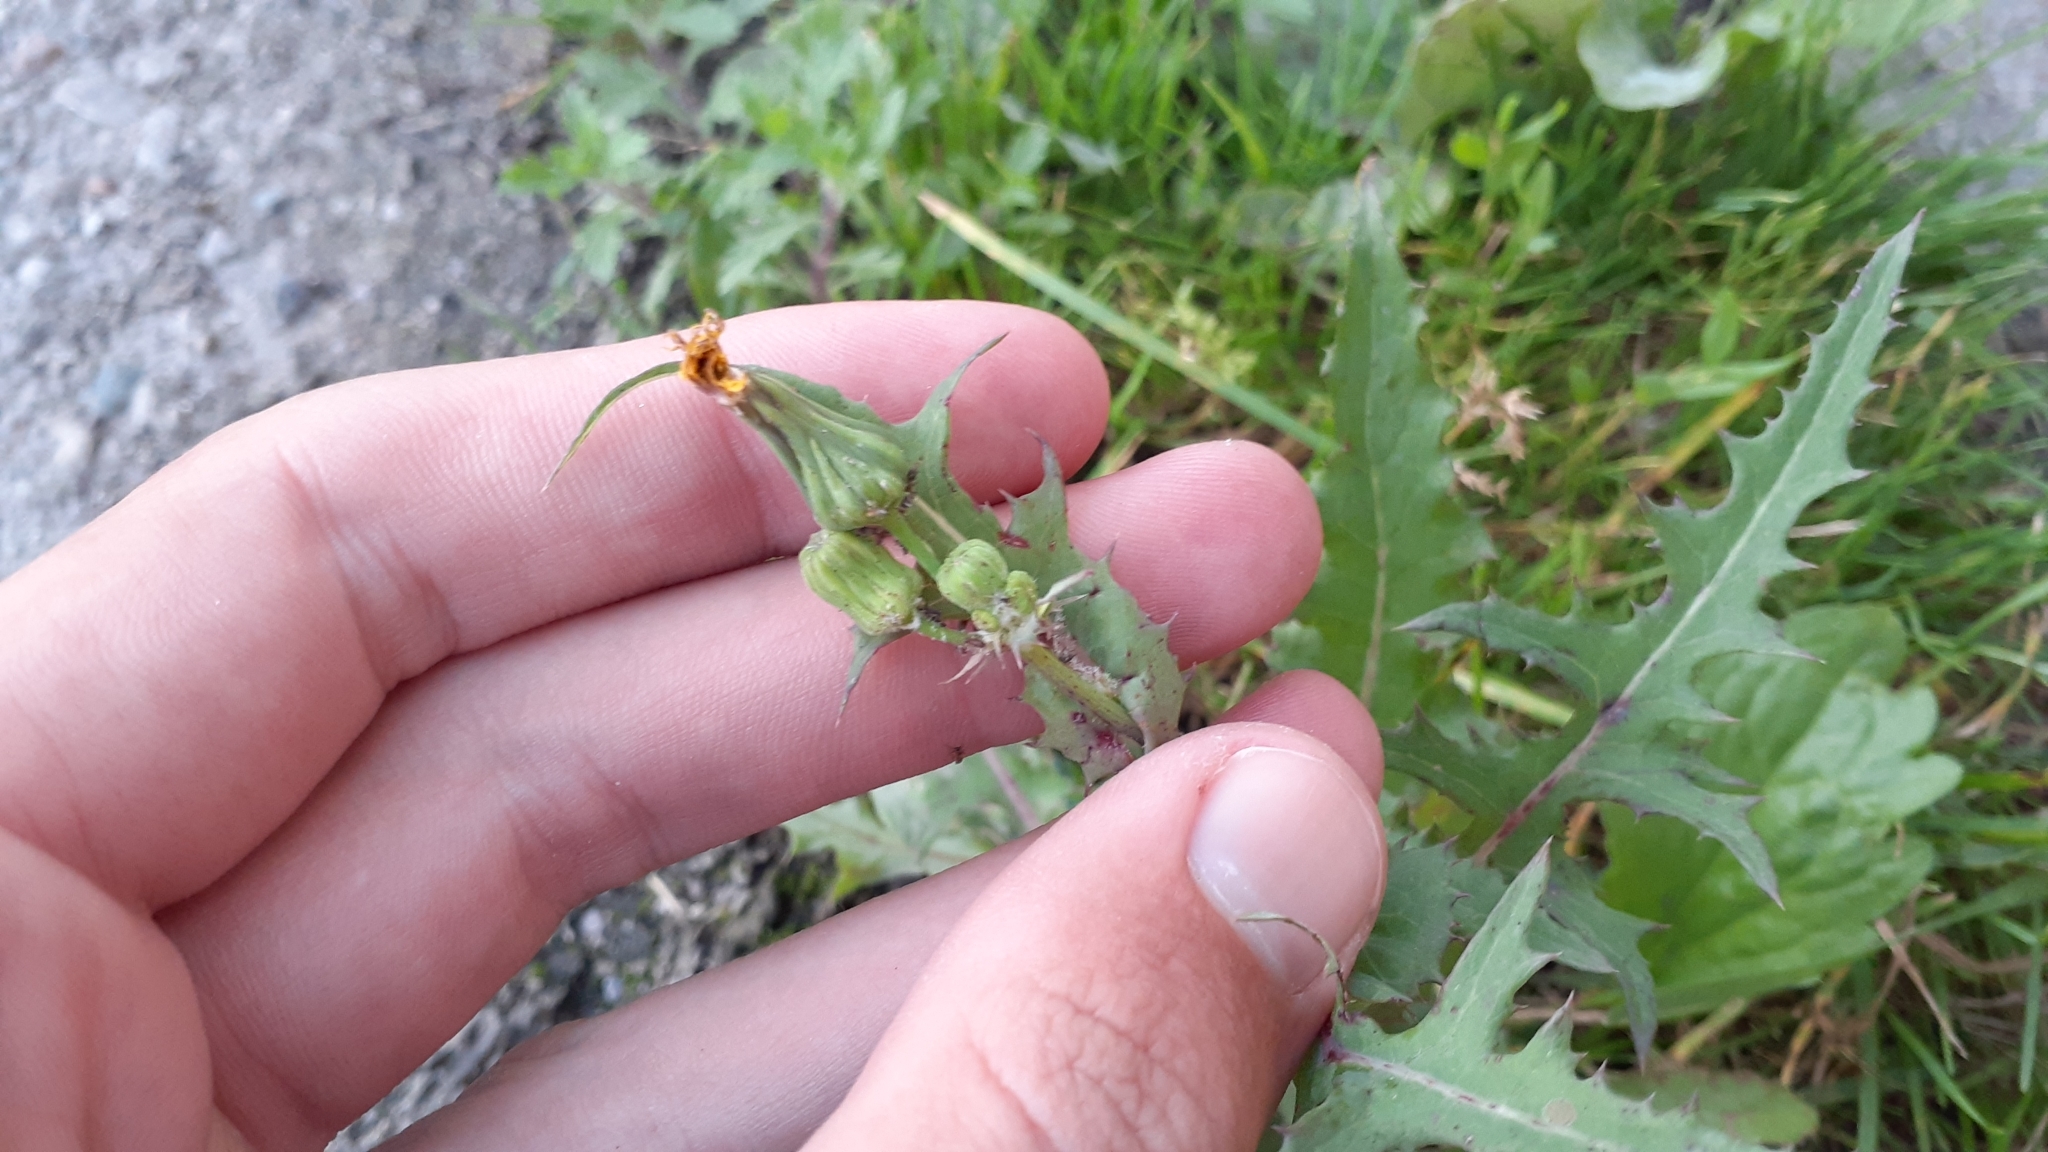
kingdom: Plantae
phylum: Tracheophyta
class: Magnoliopsida
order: Asterales
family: Asteraceae
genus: Sonchus
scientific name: Sonchus oleraceus
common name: Common sowthistle
